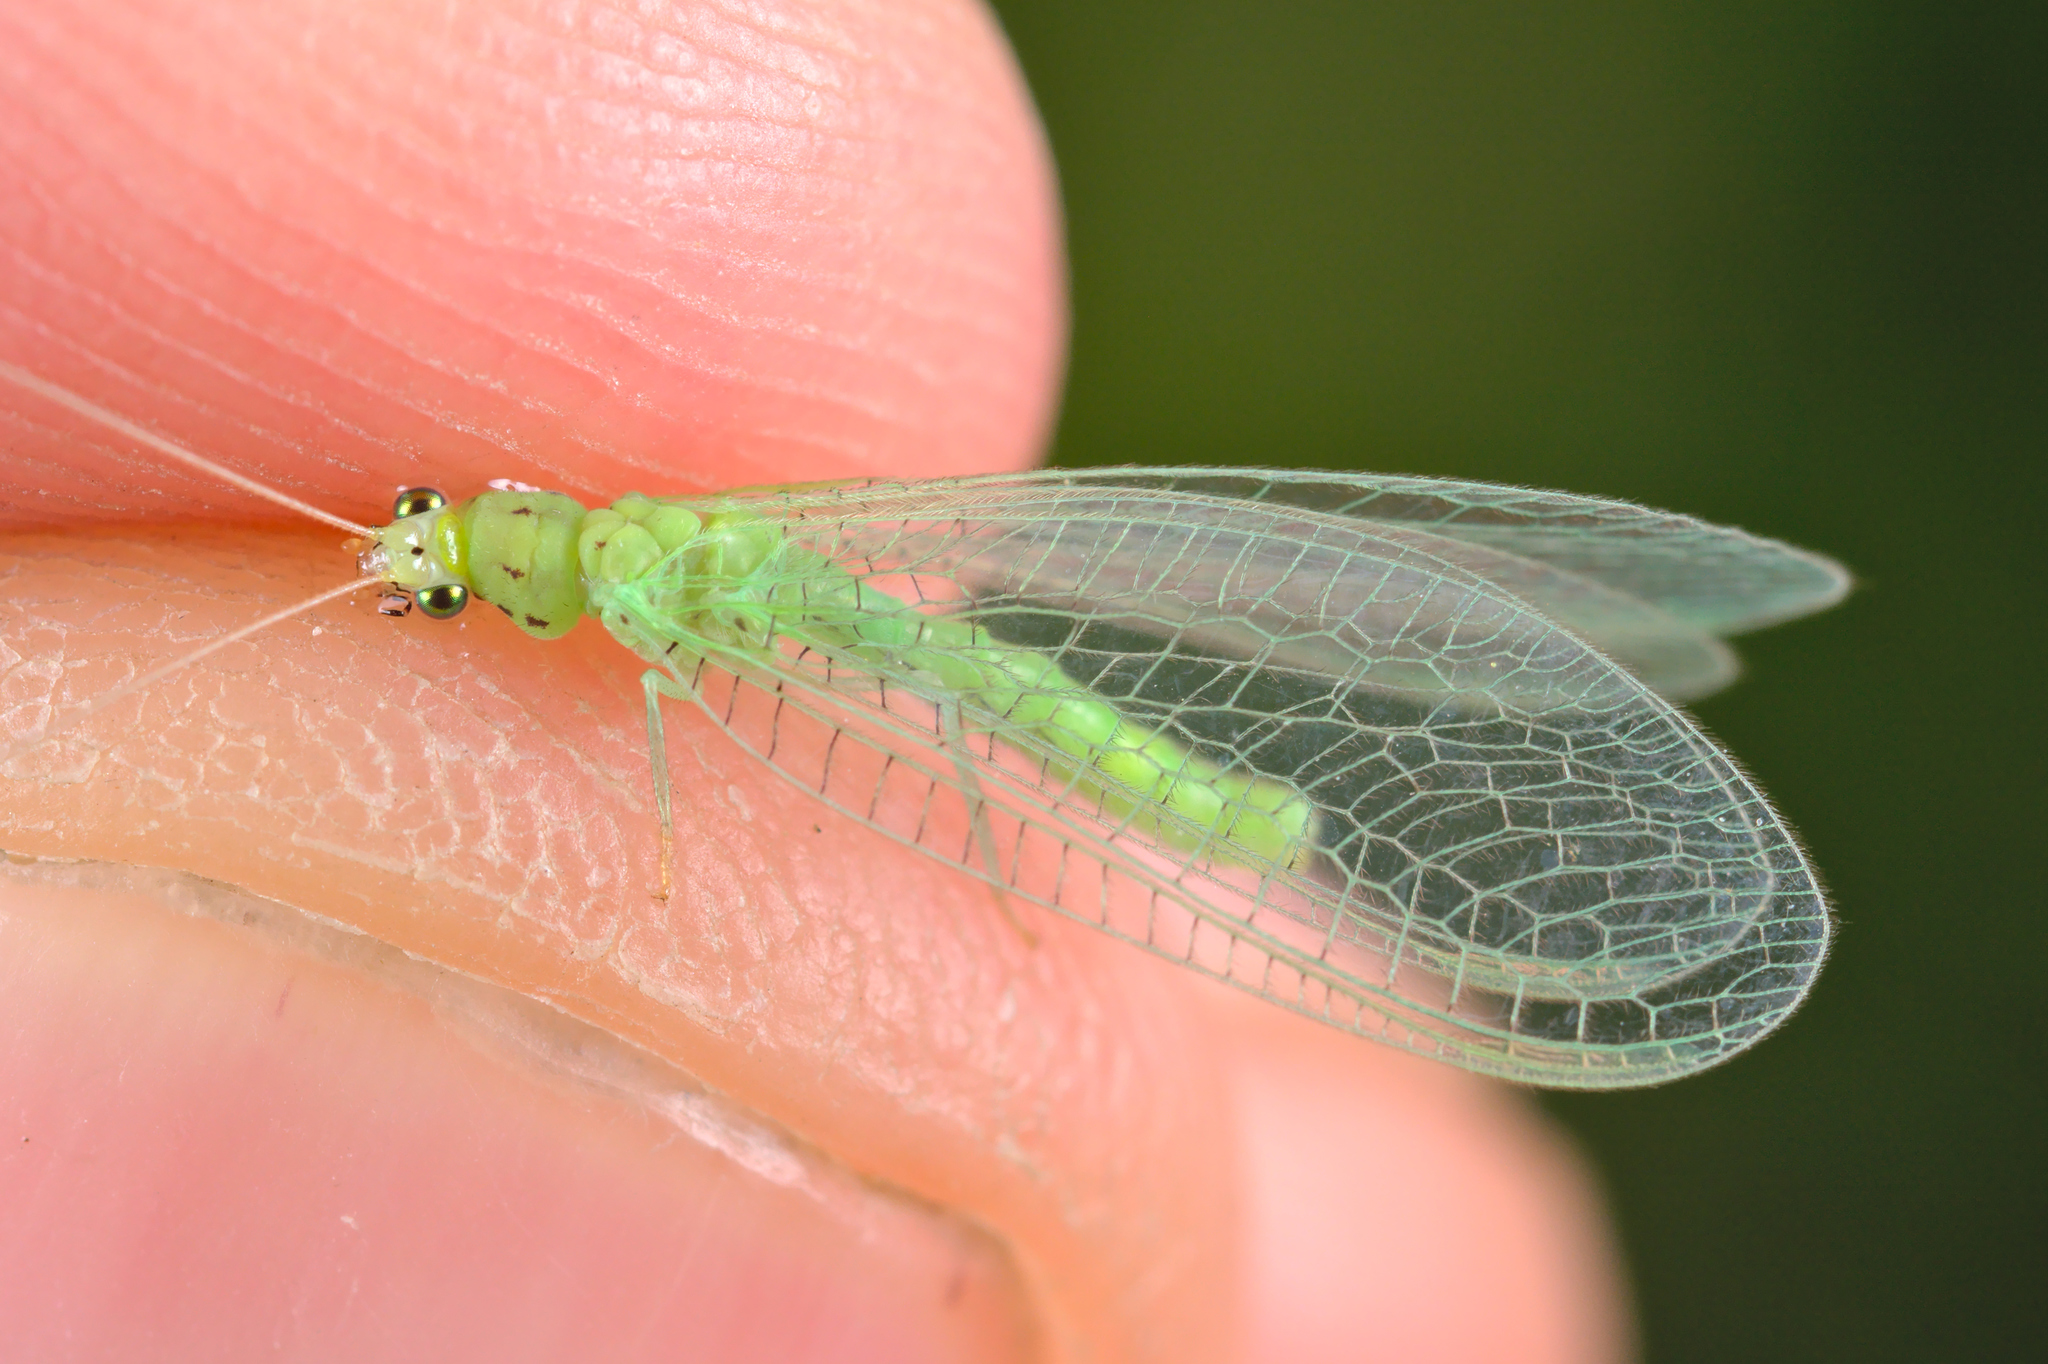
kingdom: Animalia
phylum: Arthropoda
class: Insecta
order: Neuroptera
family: Chrysopidae
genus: Pseudomallada
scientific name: Pseudomallada prasinus
